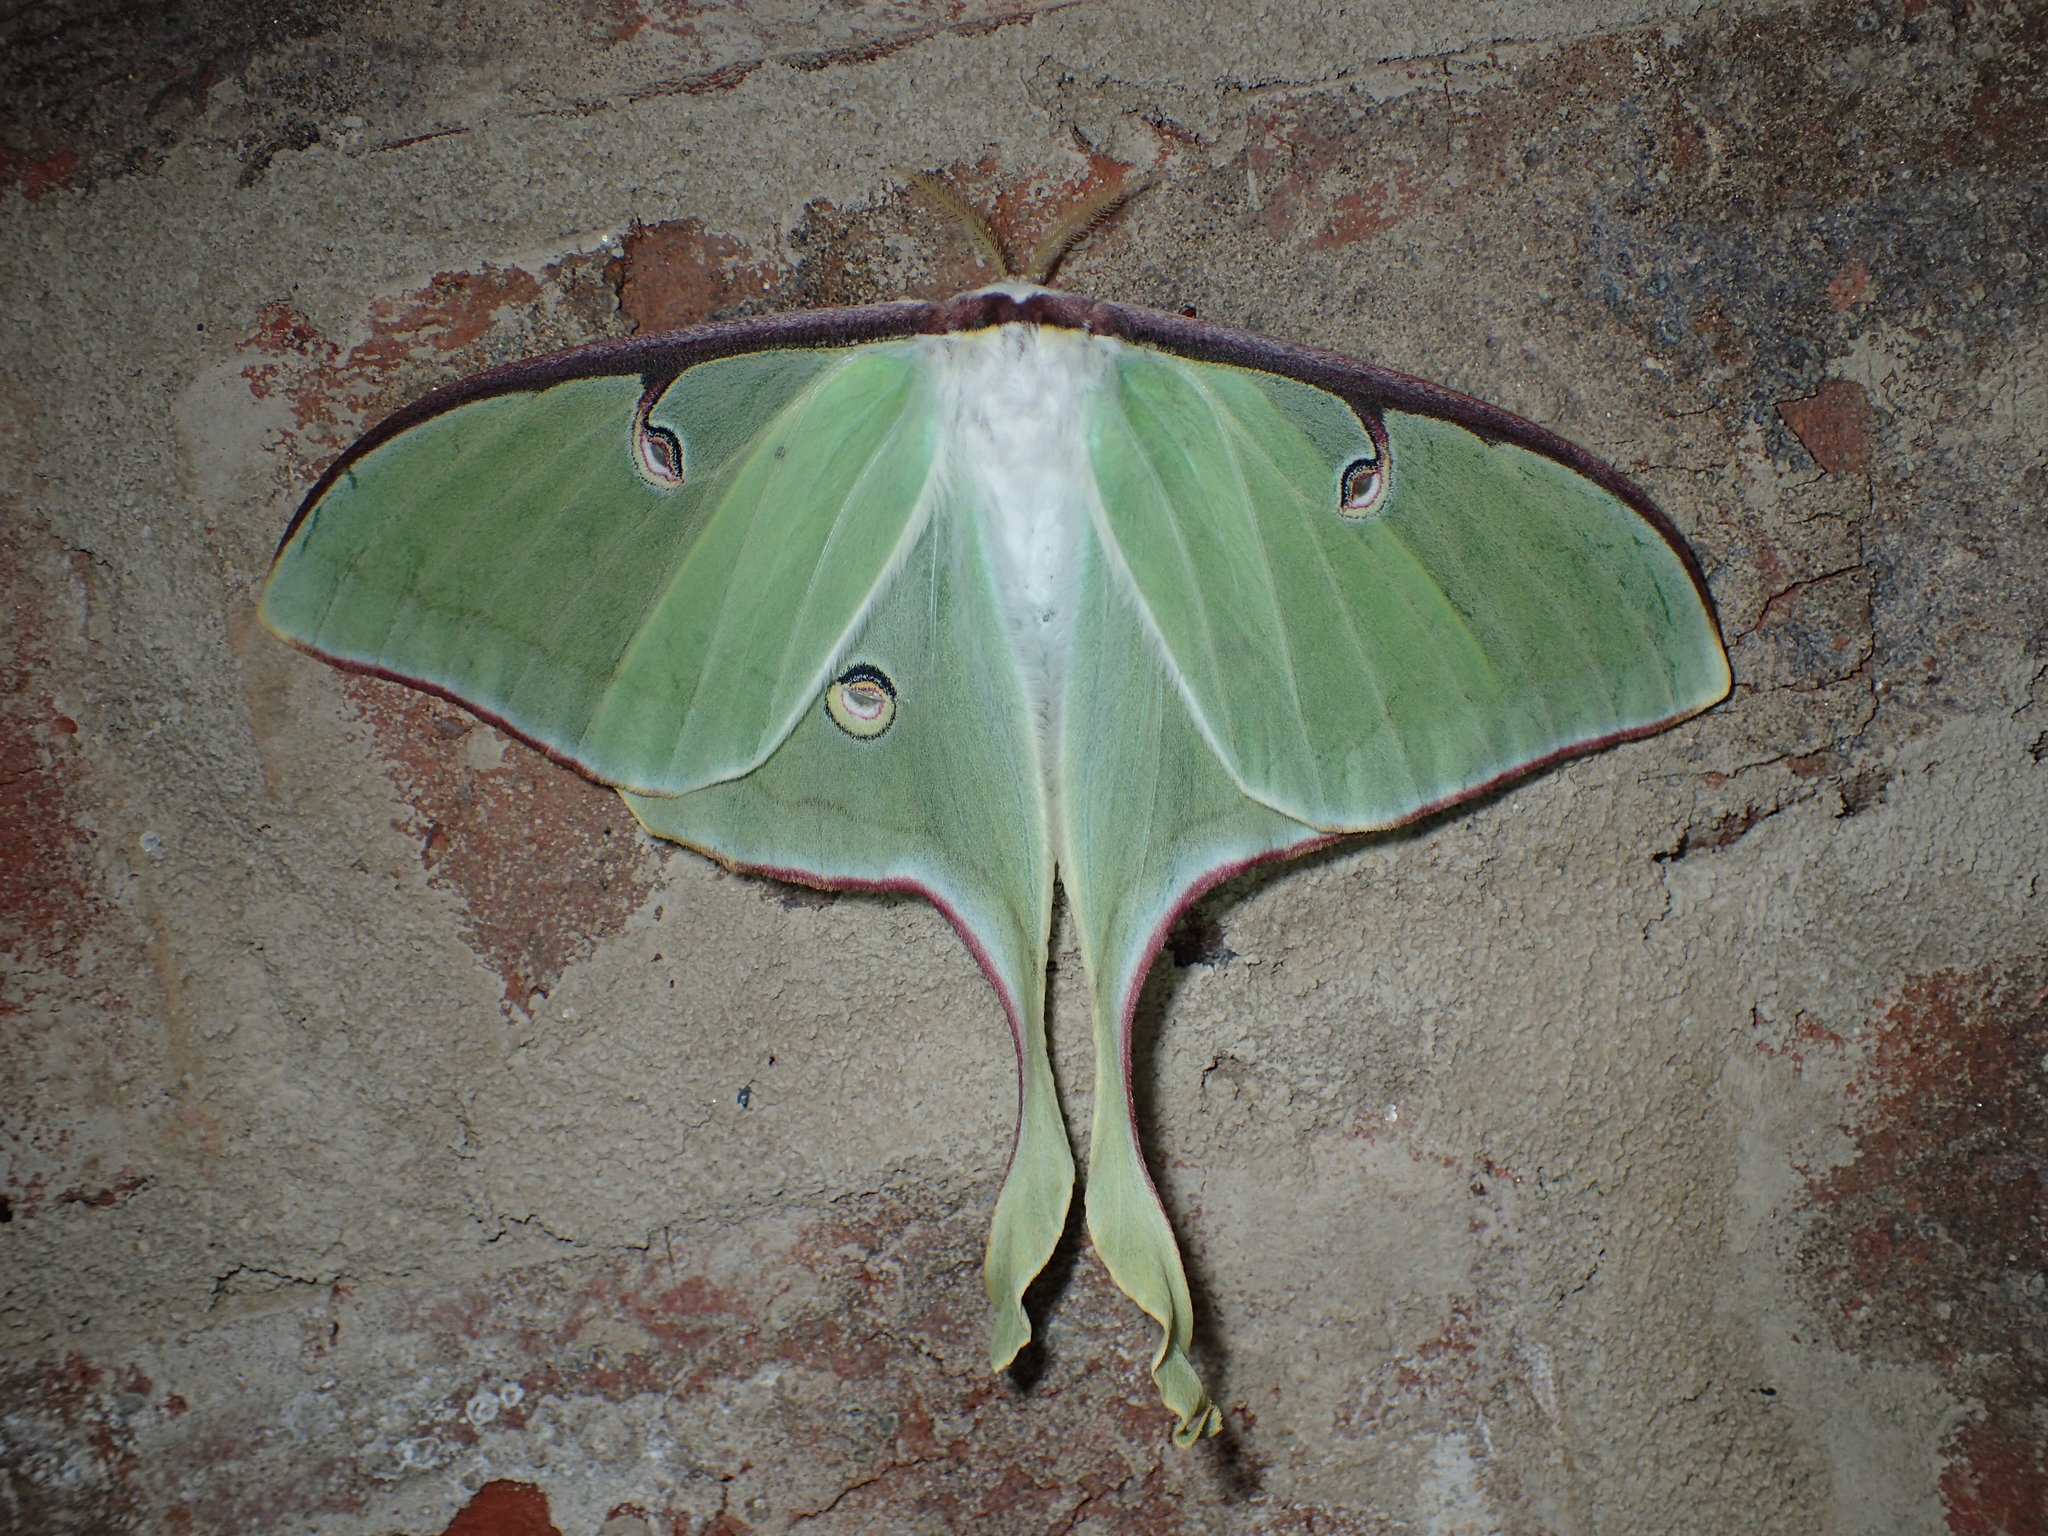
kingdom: Animalia
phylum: Arthropoda
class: Insecta
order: Lepidoptera
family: Saturniidae
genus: Actias
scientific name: Actias luna
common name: Luna moth
